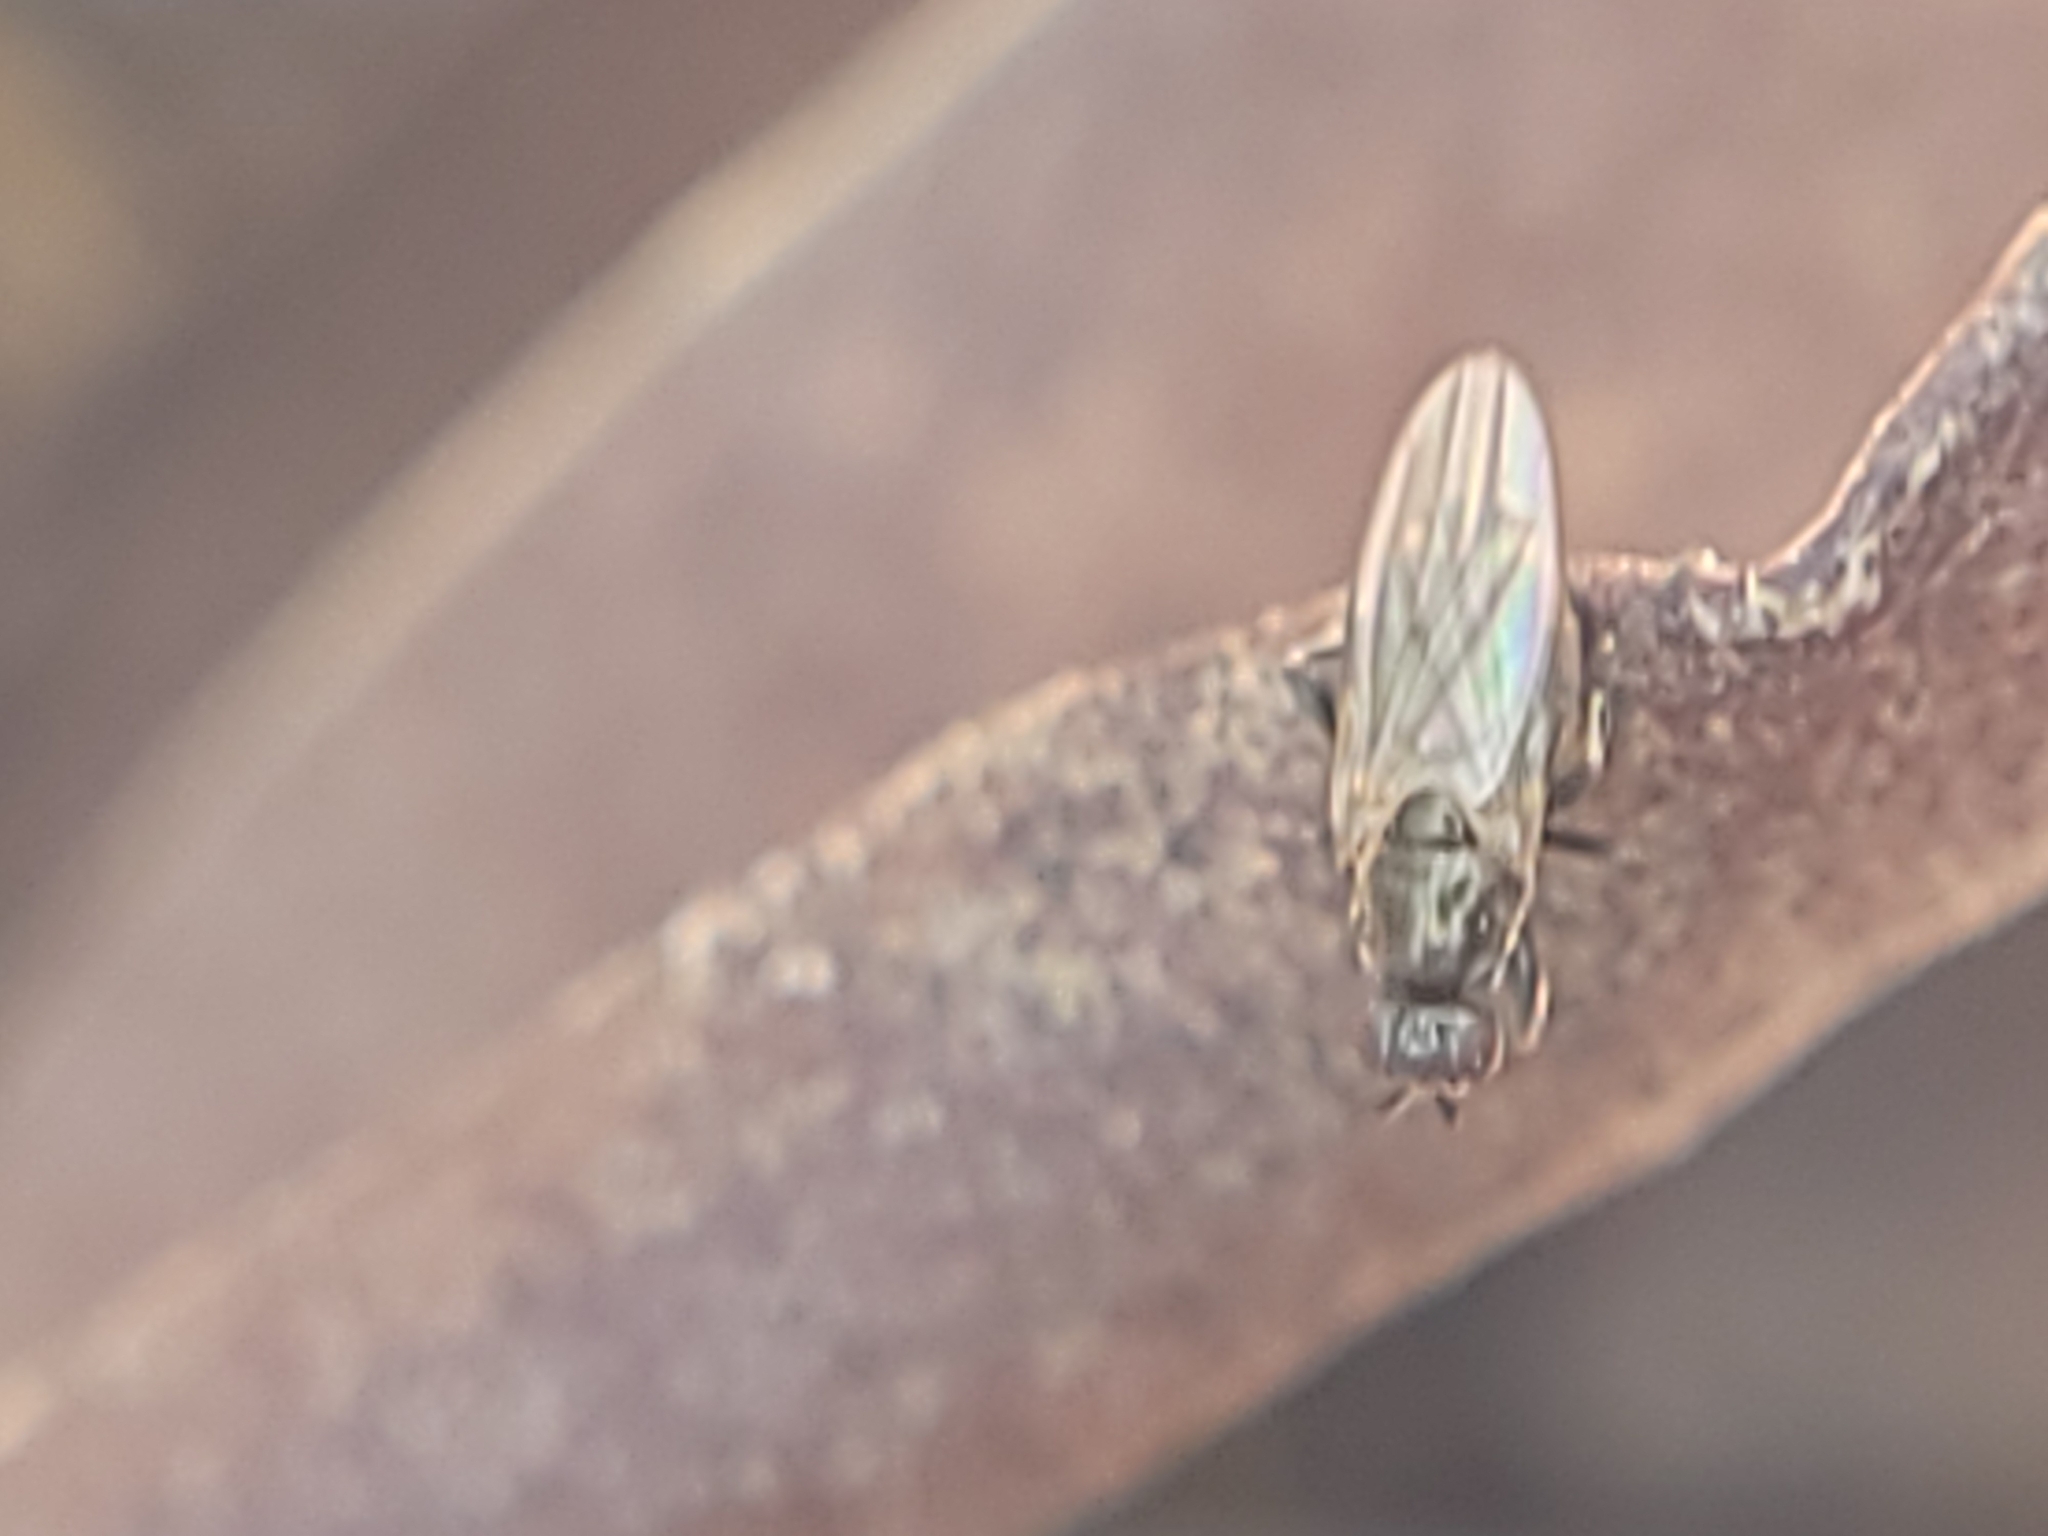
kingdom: Animalia
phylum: Arthropoda
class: Insecta
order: Diptera
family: Sphaeroceridae
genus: Lotophila
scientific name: Lotophila atra
